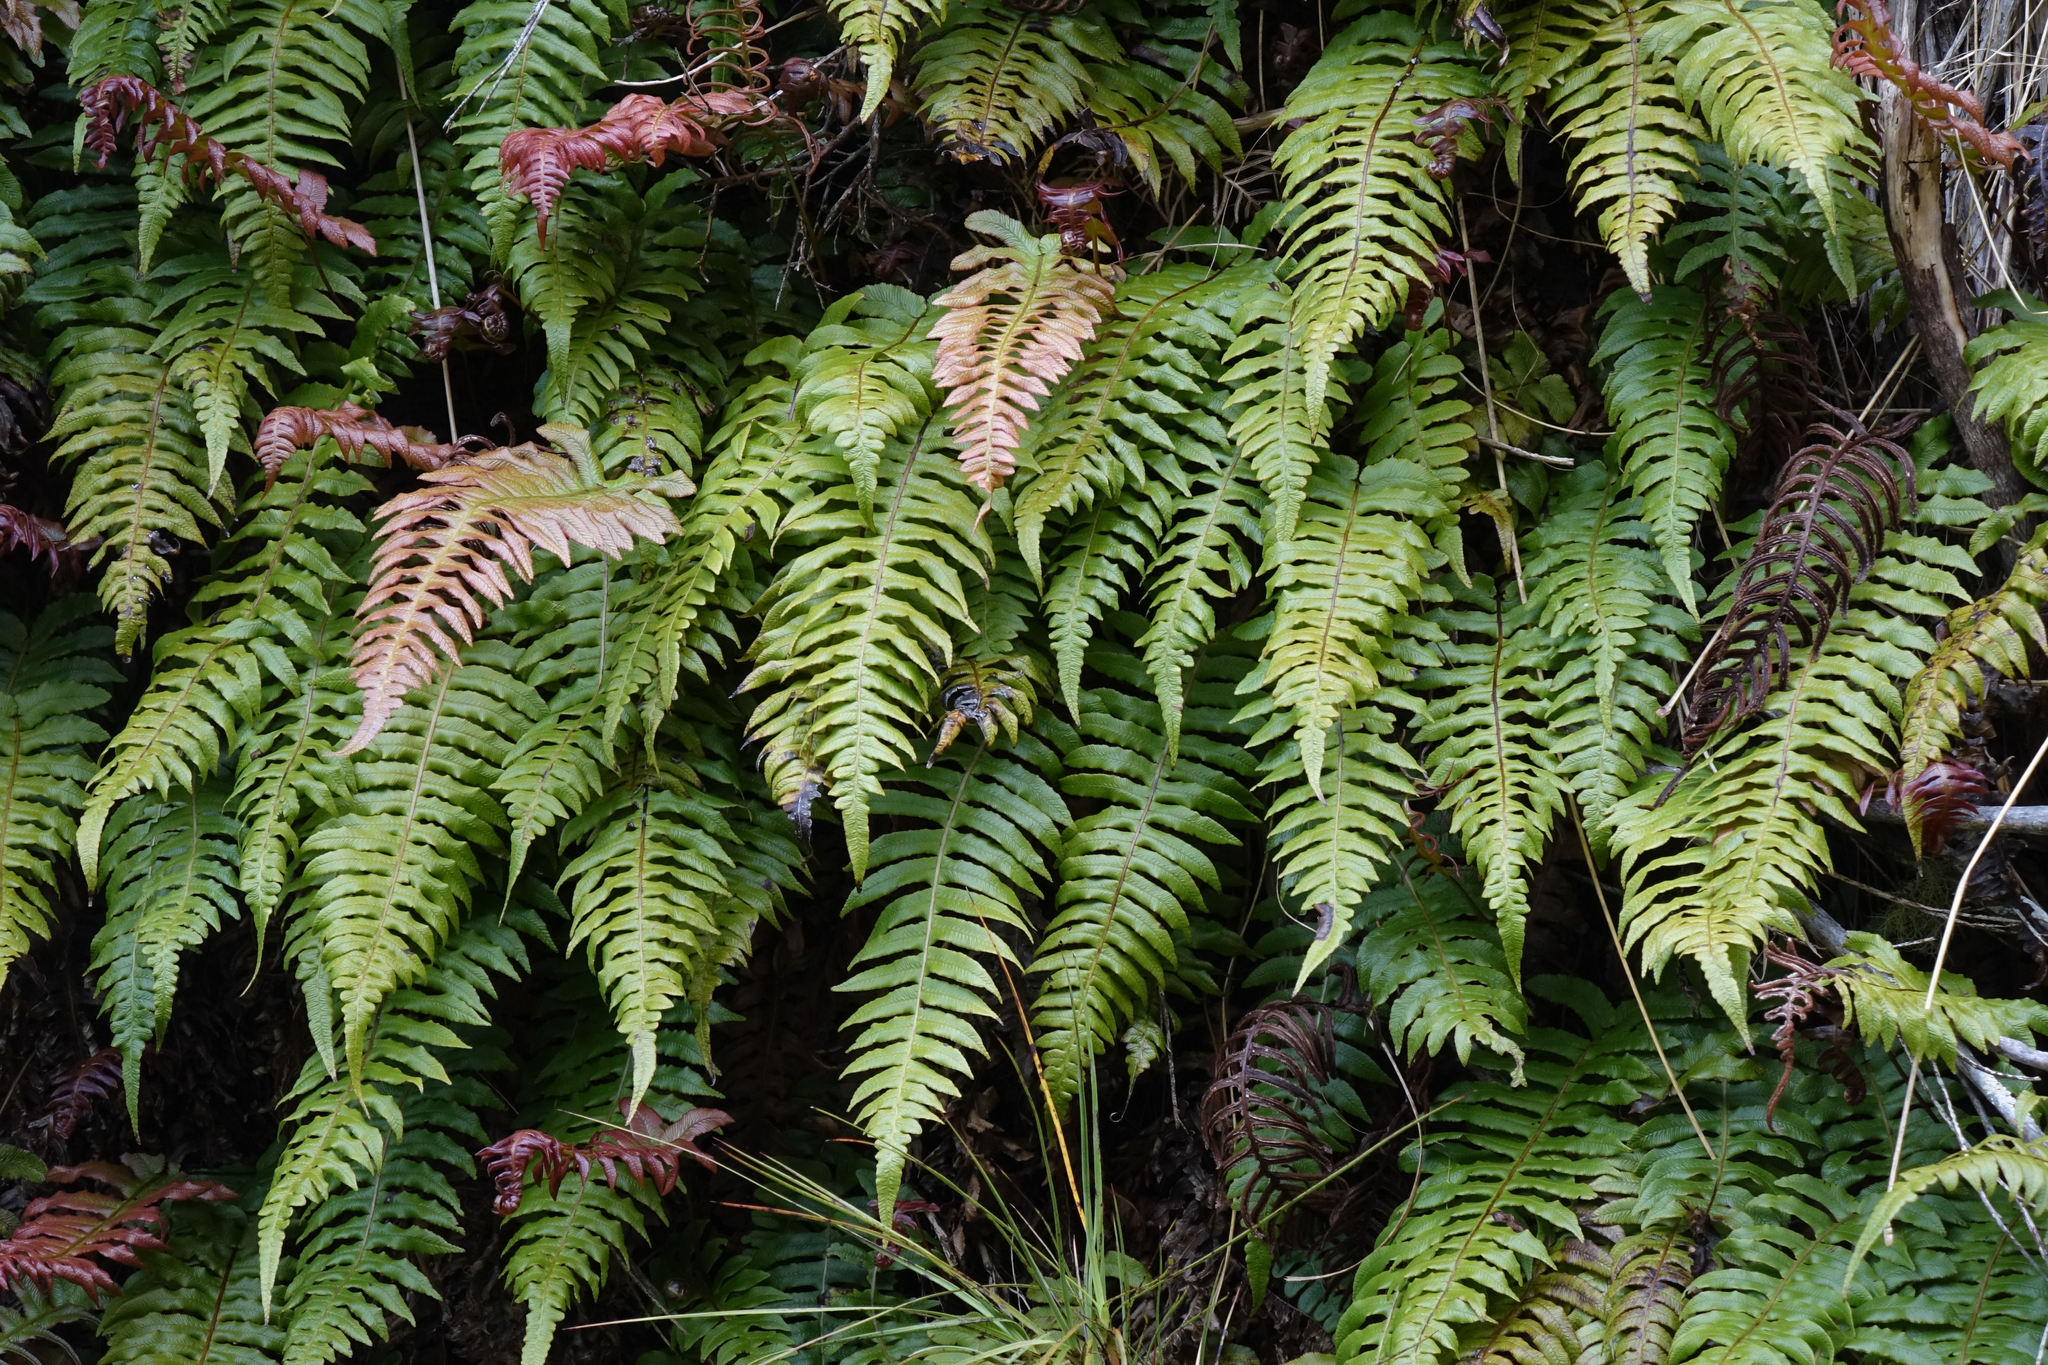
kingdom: Plantae
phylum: Tracheophyta
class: Polypodiopsida
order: Polypodiales
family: Blechnaceae
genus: Cranfillia
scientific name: Cranfillia vulcanica
